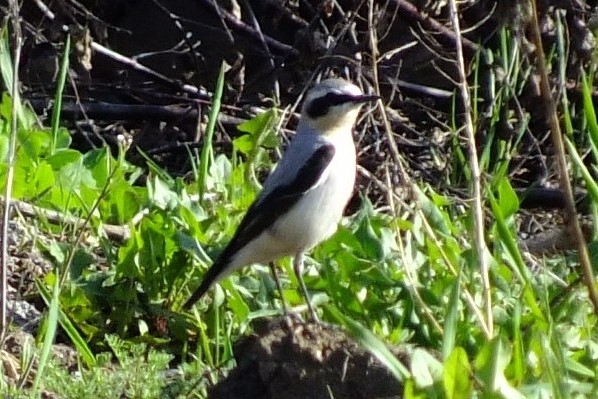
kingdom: Animalia
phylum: Chordata
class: Aves
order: Passeriformes
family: Muscicapidae
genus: Oenanthe
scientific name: Oenanthe oenanthe
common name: Northern wheatear
